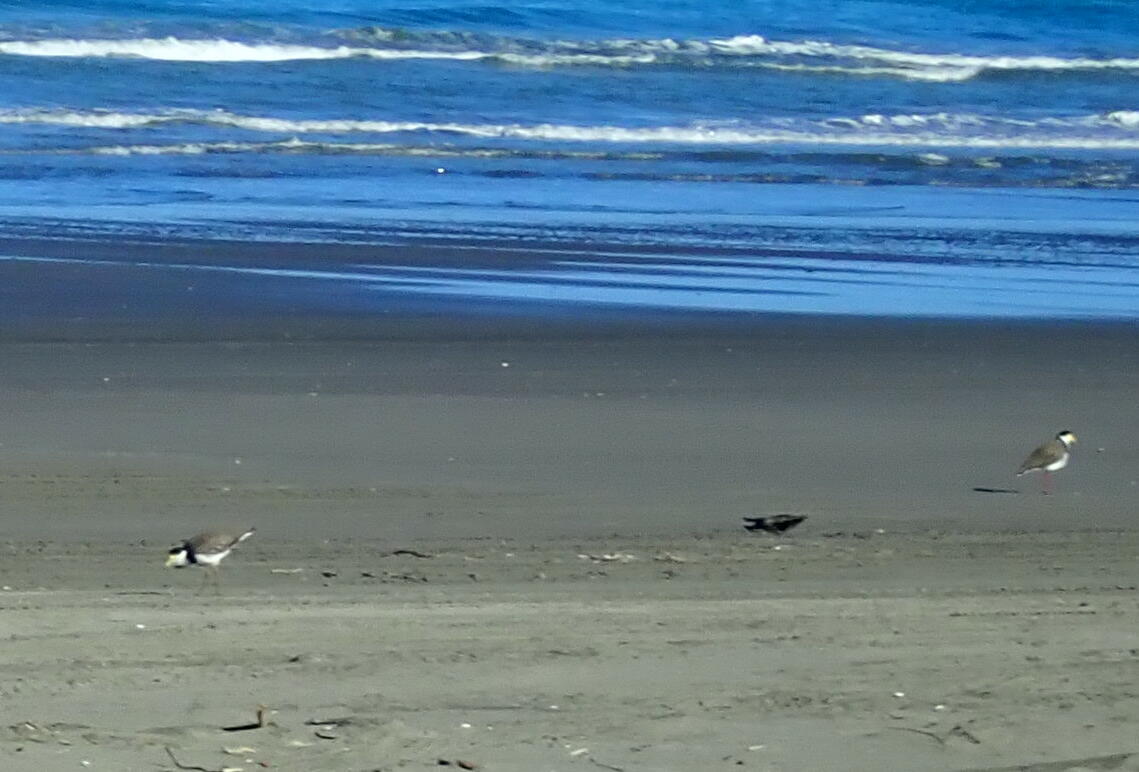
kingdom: Animalia
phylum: Chordata
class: Aves
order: Charadriiformes
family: Charadriidae
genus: Vanellus
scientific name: Vanellus miles
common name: Masked lapwing
